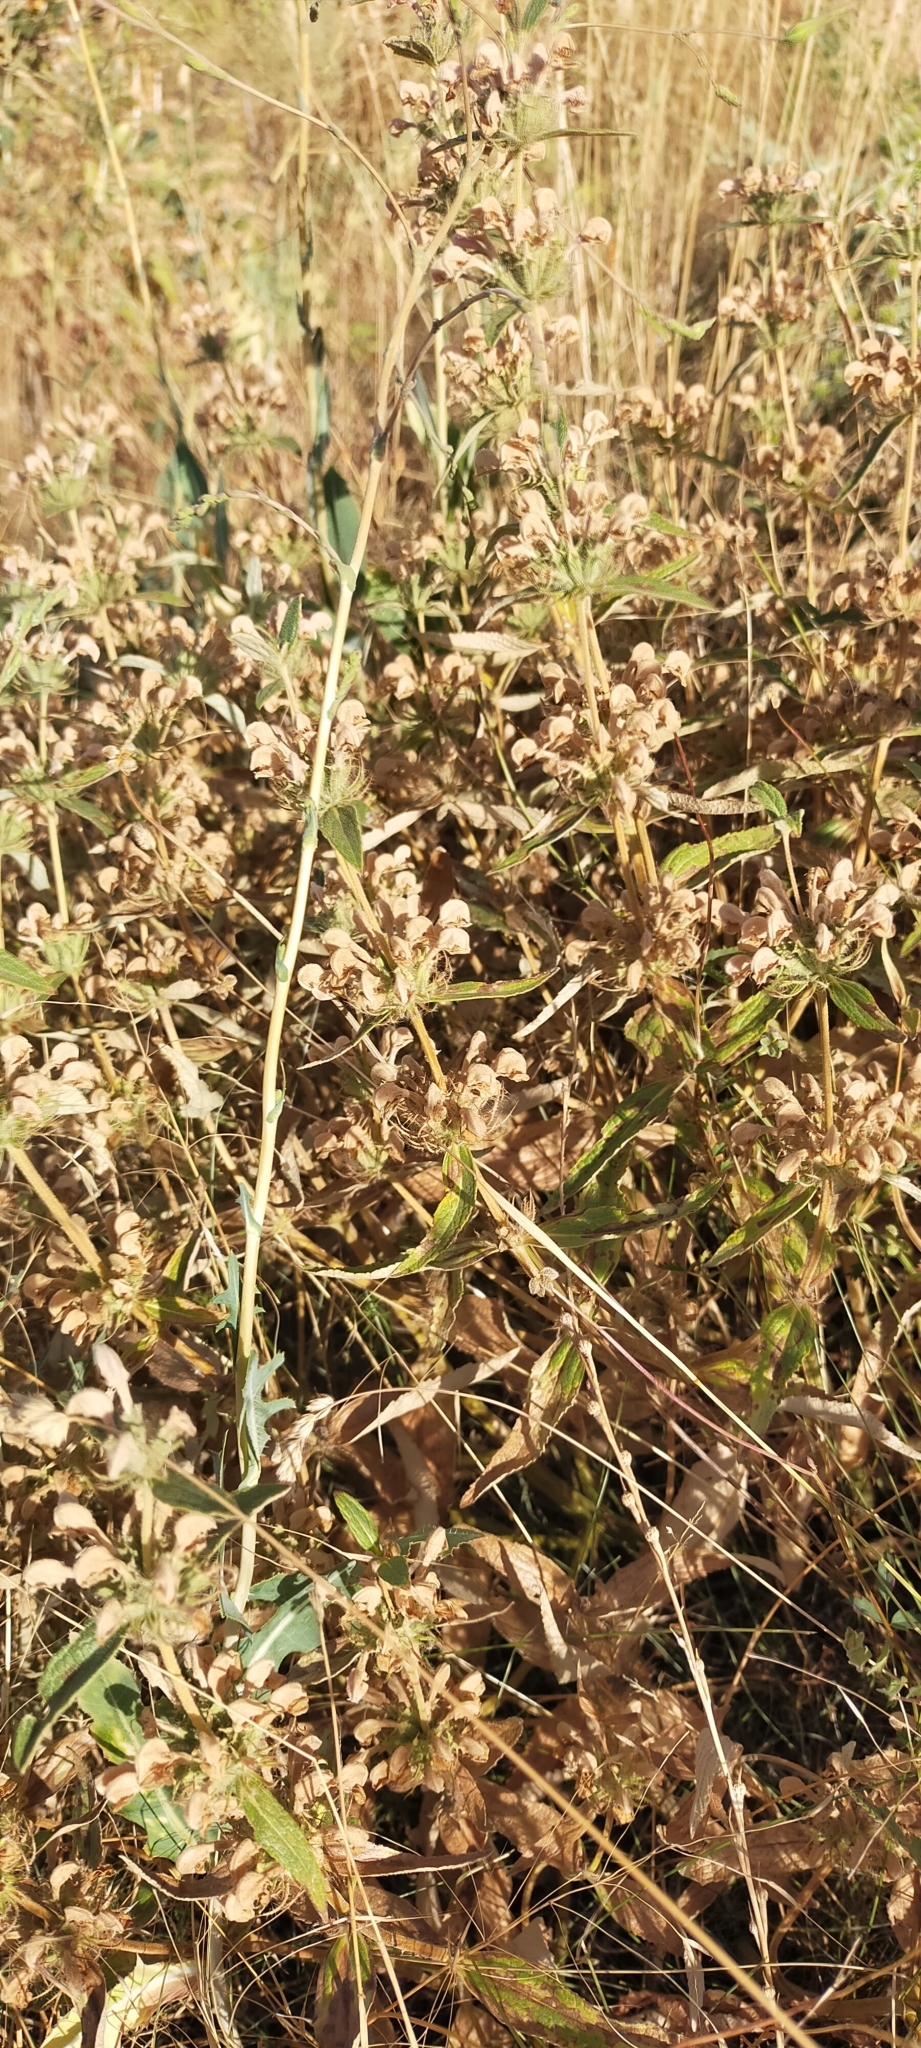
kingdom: Plantae
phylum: Tracheophyta
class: Magnoliopsida
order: Lamiales
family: Lamiaceae
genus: Phlomis
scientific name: Phlomis herba-venti
